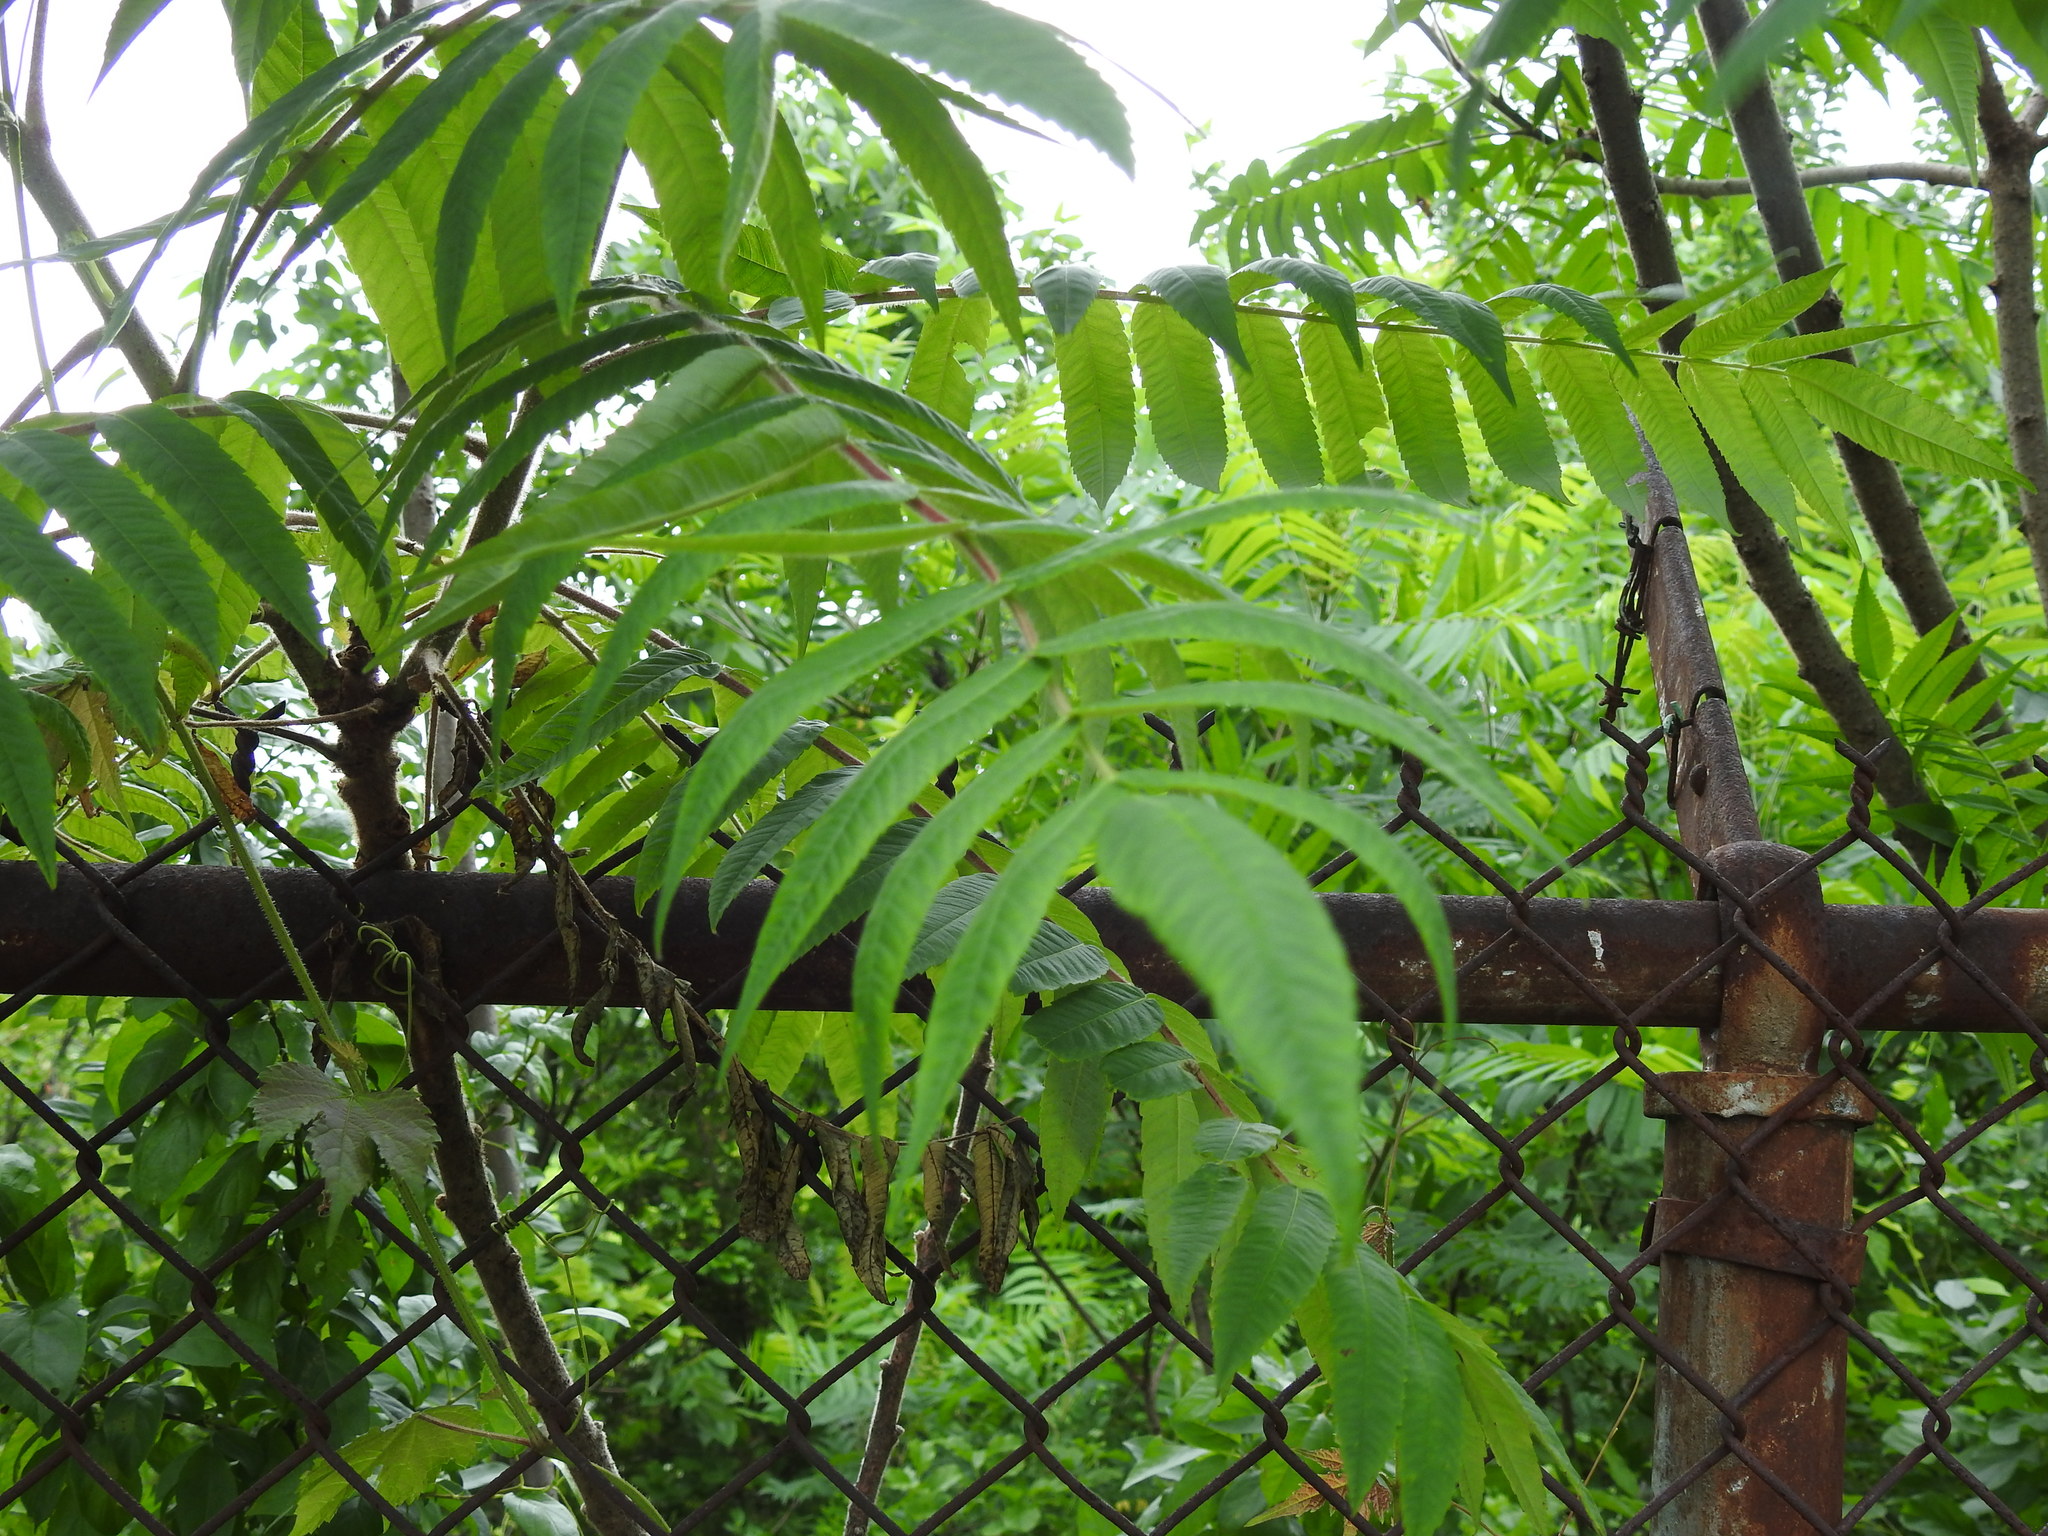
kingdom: Plantae
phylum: Tracheophyta
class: Magnoliopsida
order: Sapindales
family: Anacardiaceae
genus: Rhus
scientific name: Rhus typhina
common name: Staghorn sumac
